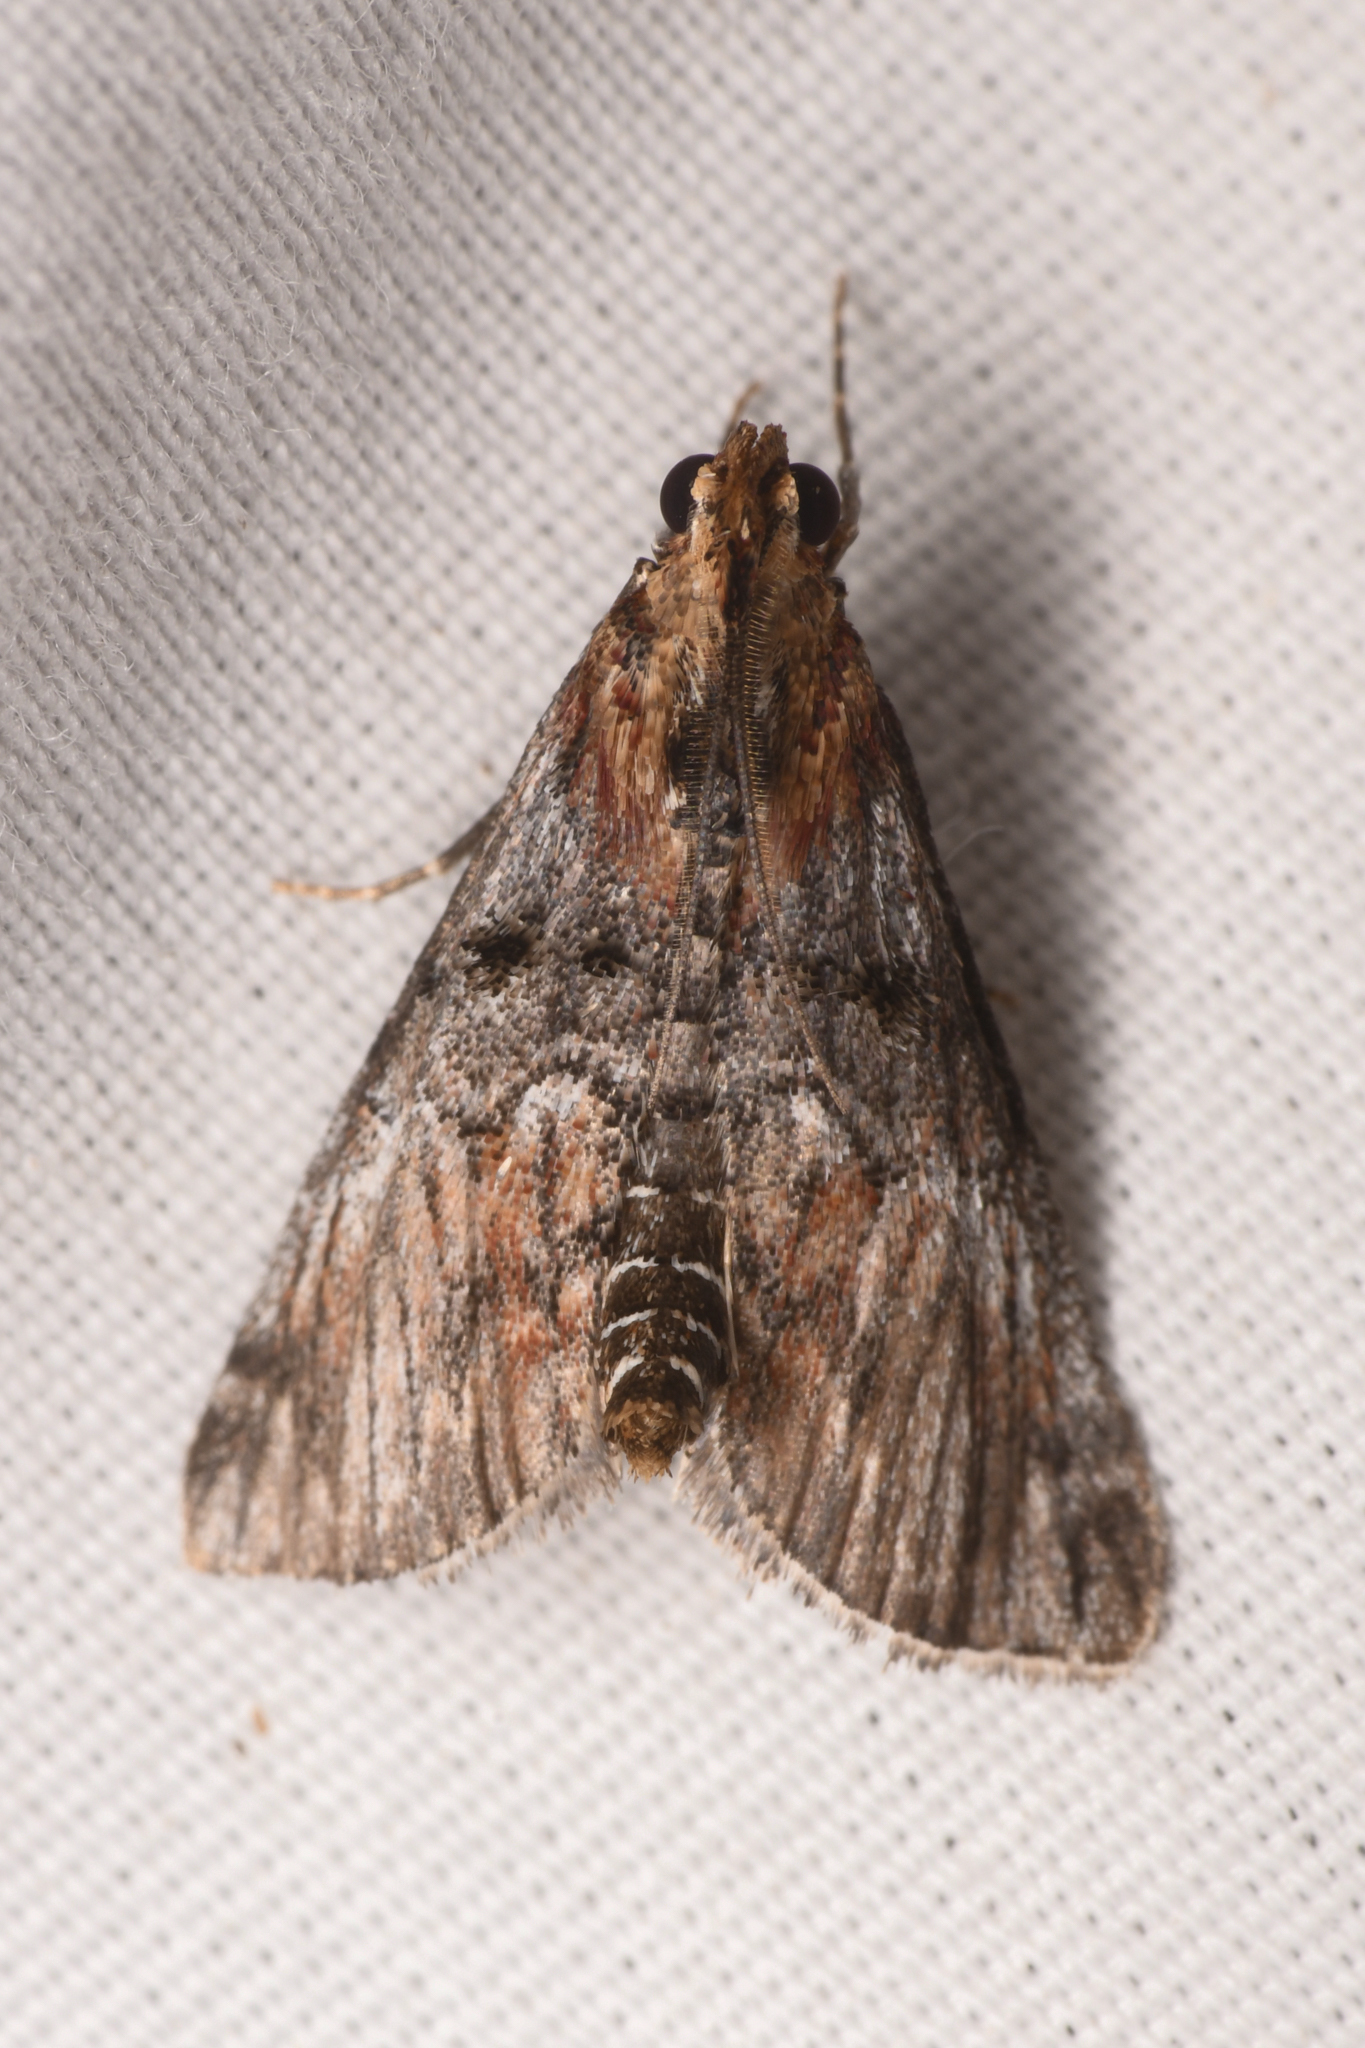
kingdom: Animalia
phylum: Arthropoda
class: Insecta
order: Lepidoptera
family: Pyralidae
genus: Toripalpus
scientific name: Toripalpus trabalis
